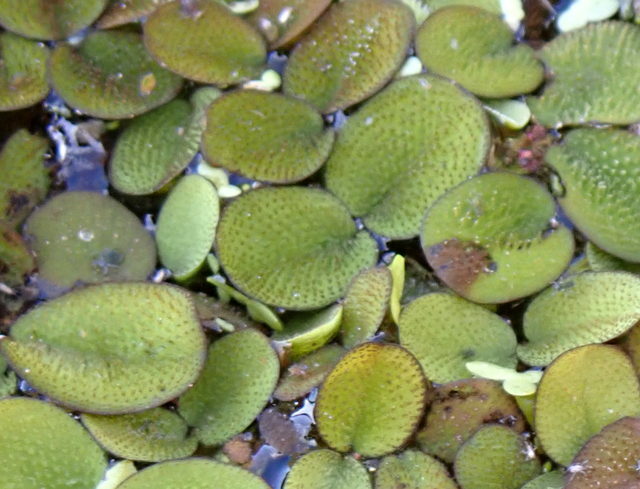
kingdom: Plantae
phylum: Tracheophyta
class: Polypodiopsida
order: Salviniales
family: Salviniaceae
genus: Salvinia
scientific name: Salvinia minima
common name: Water spangles
